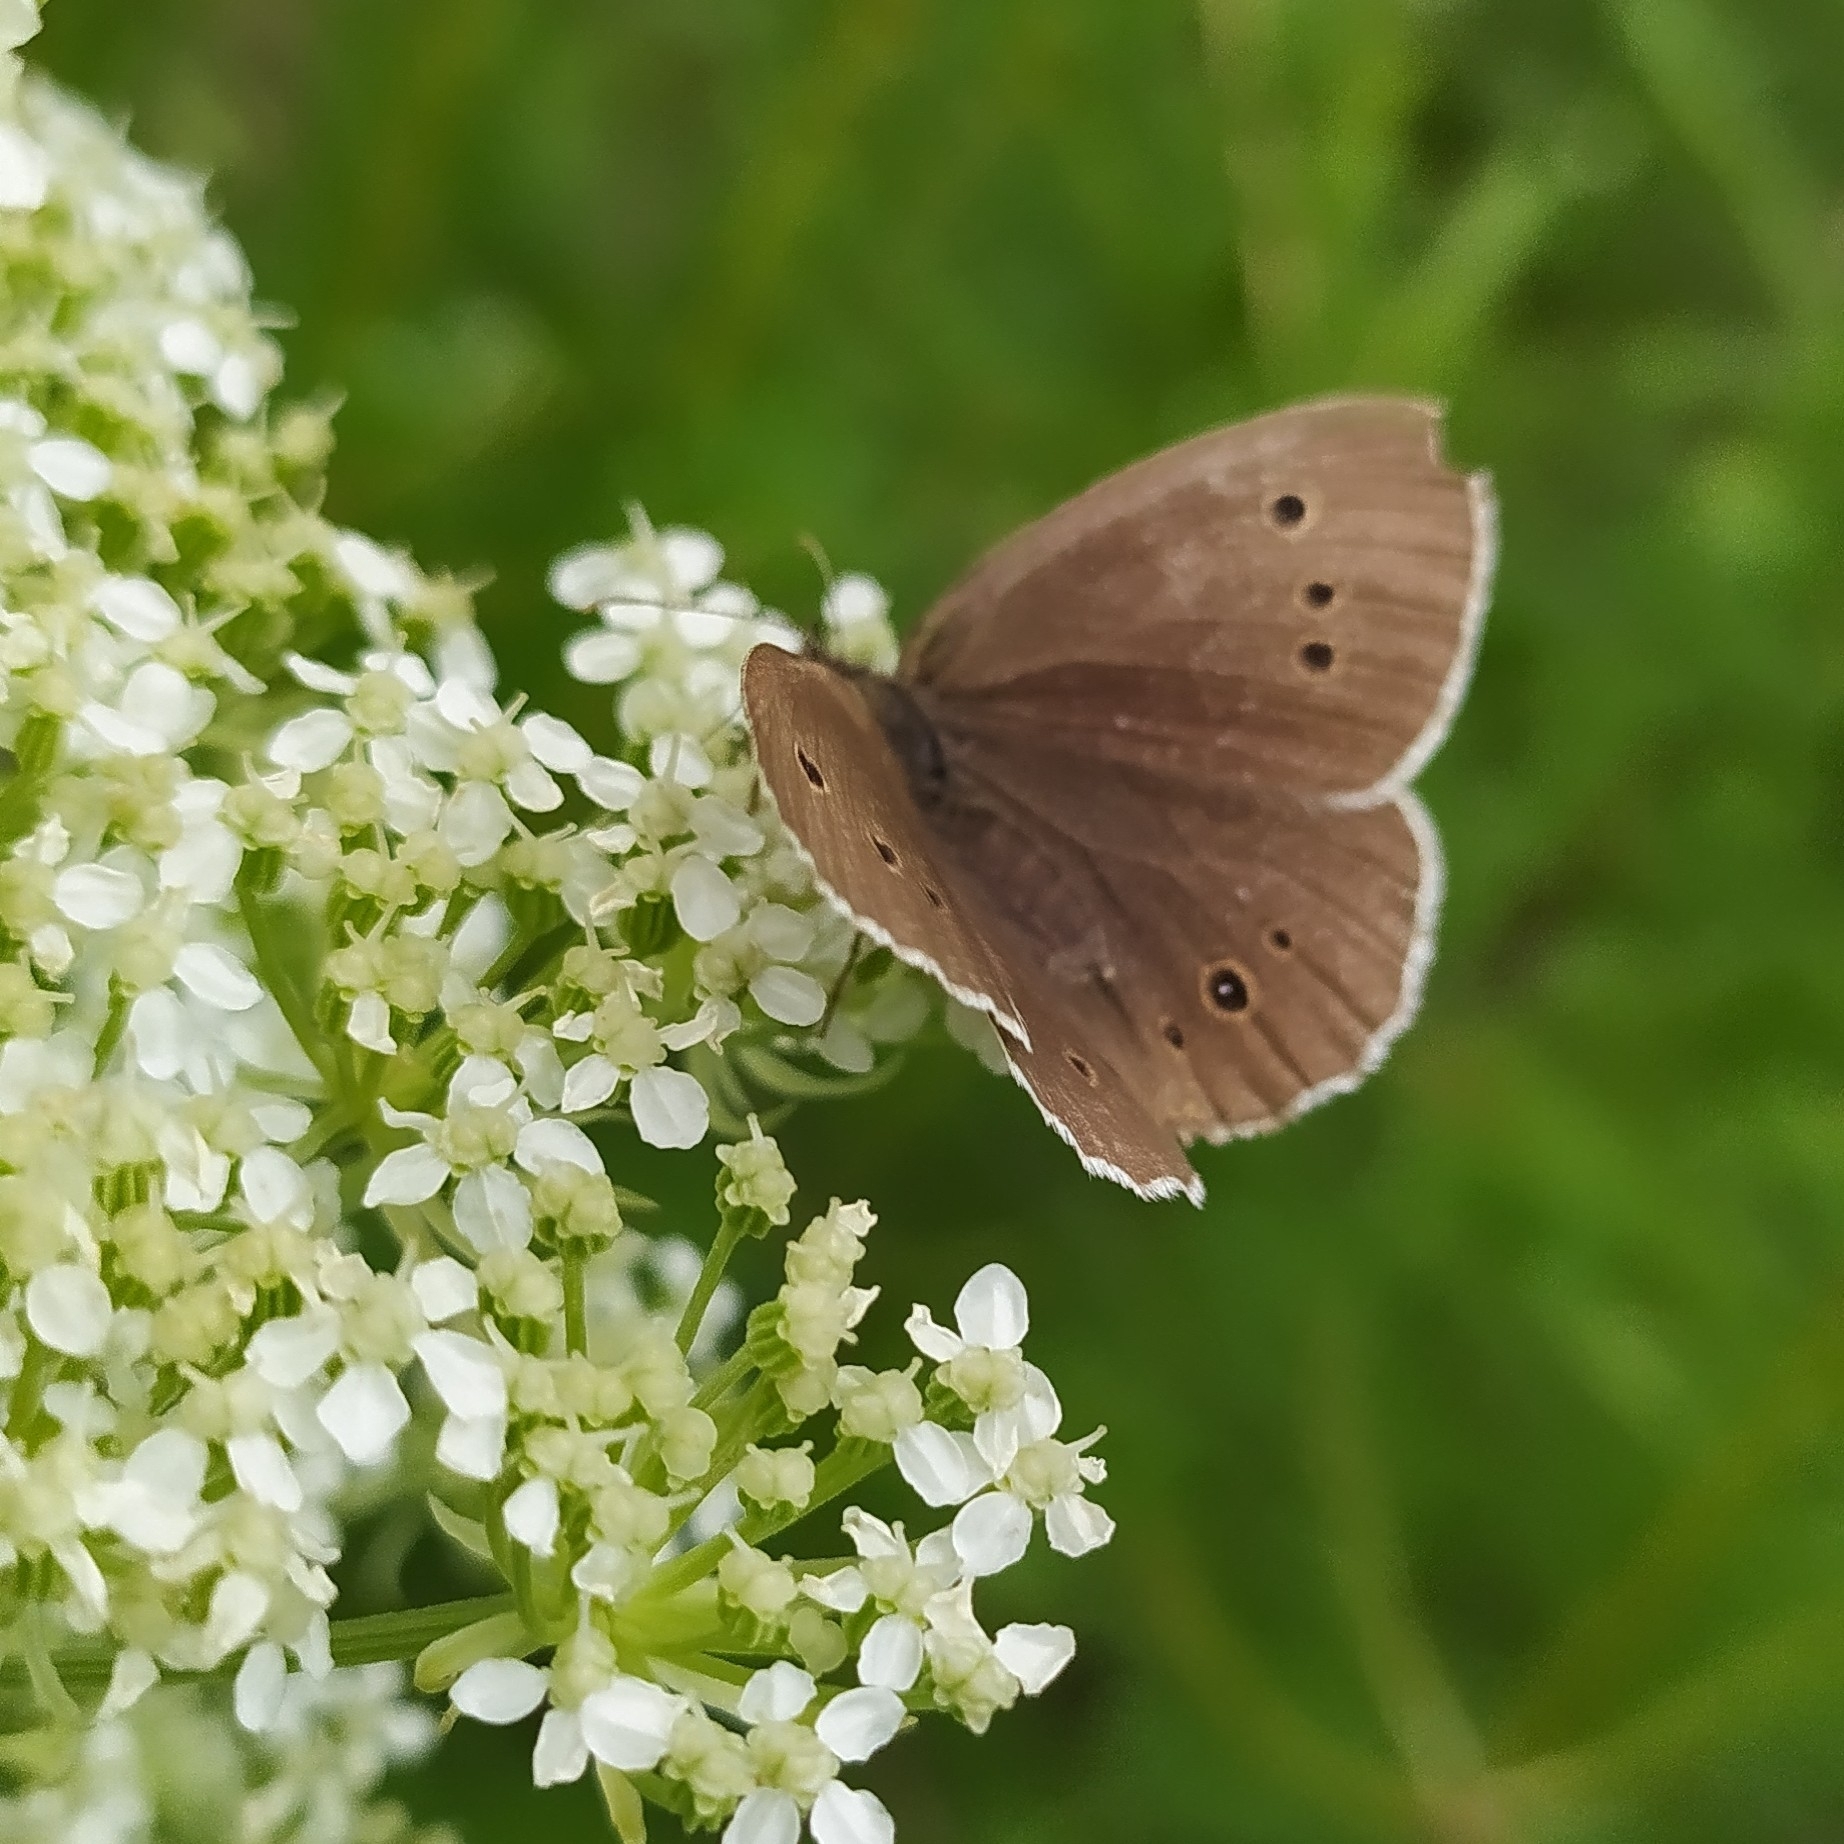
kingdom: Animalia
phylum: Arthropoda
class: Insecta
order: Lepidoptera
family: Nymphalidae
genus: Aphantopus
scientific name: Aphantopus hyperantus
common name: Ringlet
